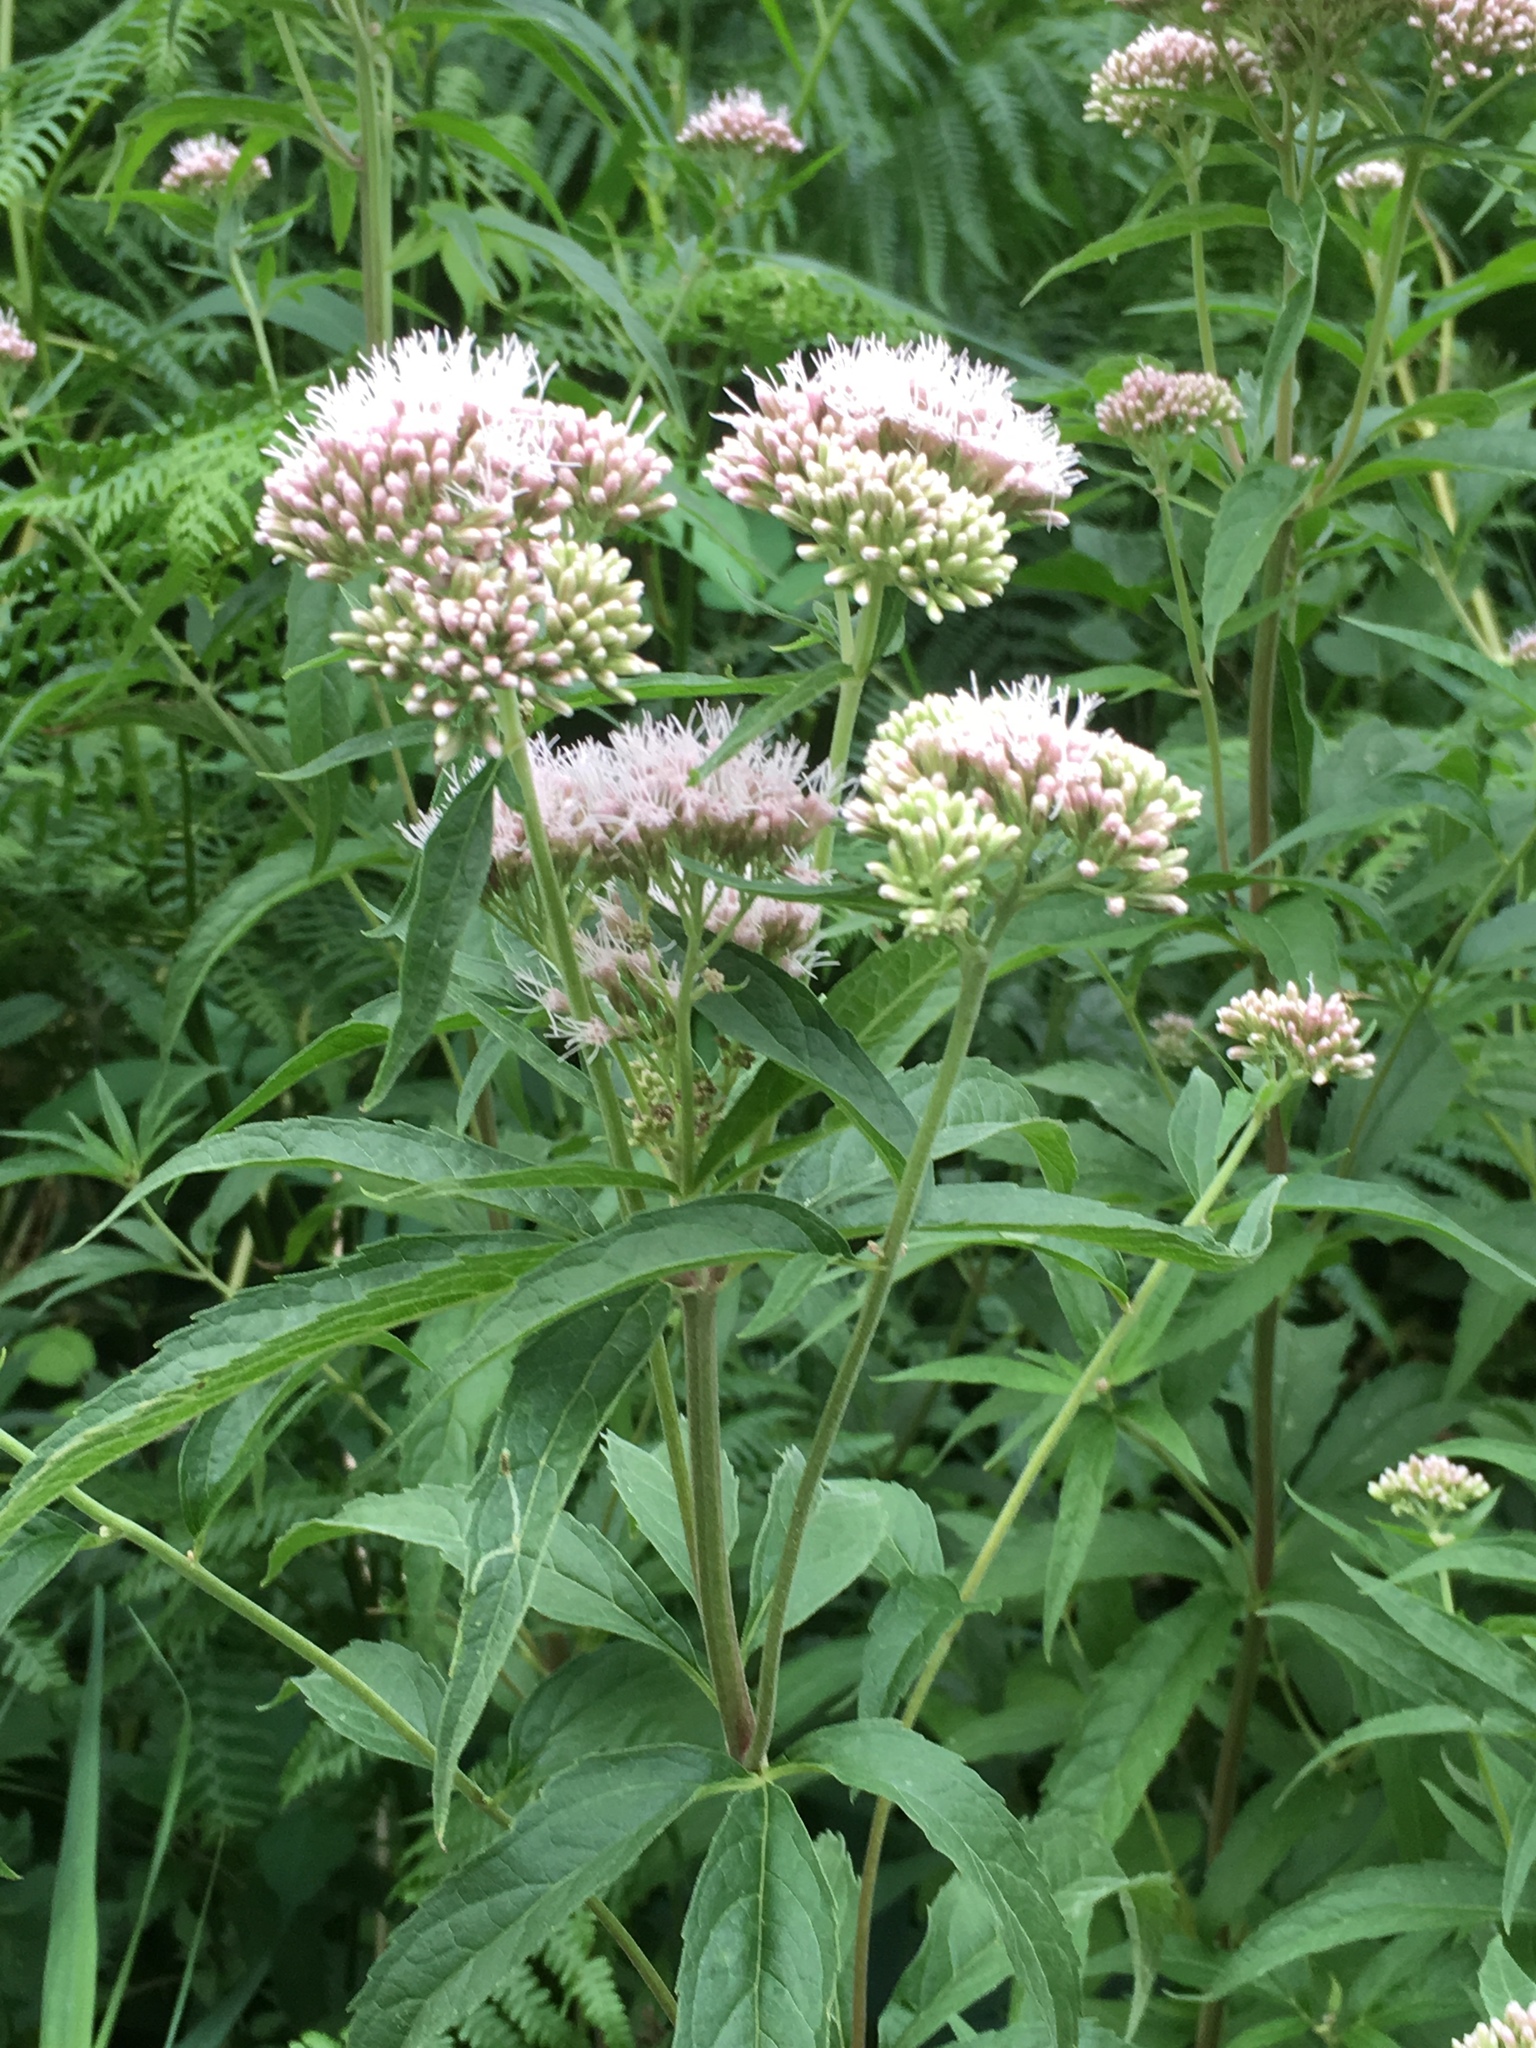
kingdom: Plantae
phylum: Tracheophyta
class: Magnoliopsida
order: Asterales
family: Asteraceae
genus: Eupatorium
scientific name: Eupatorium cannabinum
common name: Hemp-agrimony
